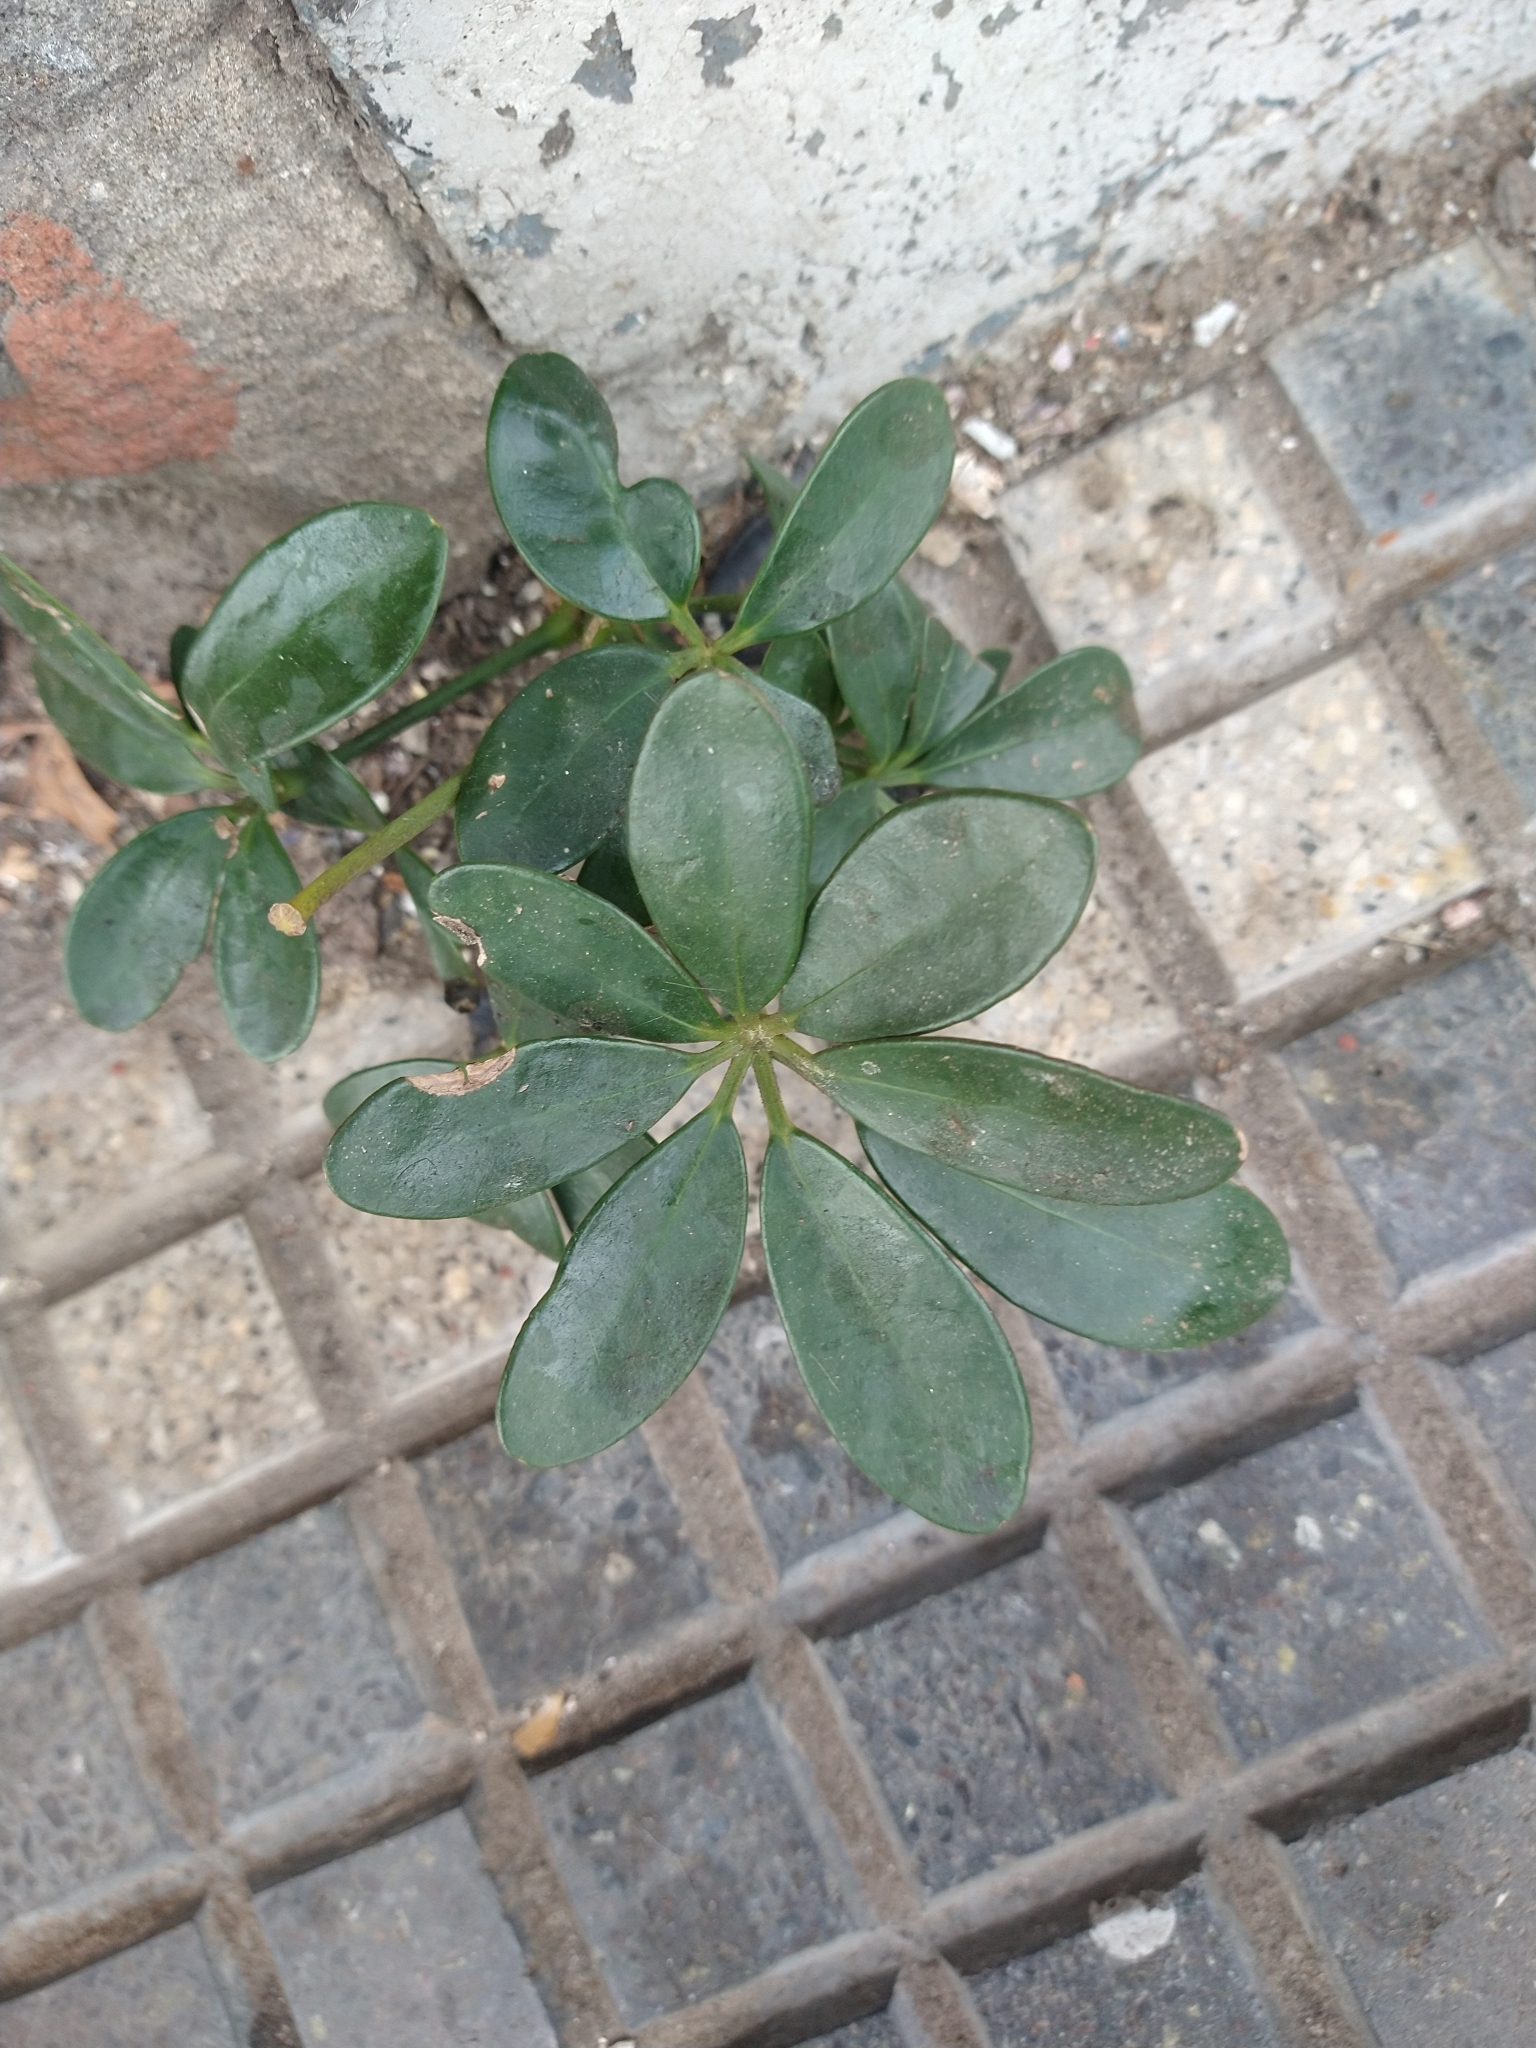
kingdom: Plantae
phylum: Tracheophyta
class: Magnoliopsida
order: Apiales
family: Araliaceae
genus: Heptapleurum
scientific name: Heptapleurum arboricola
